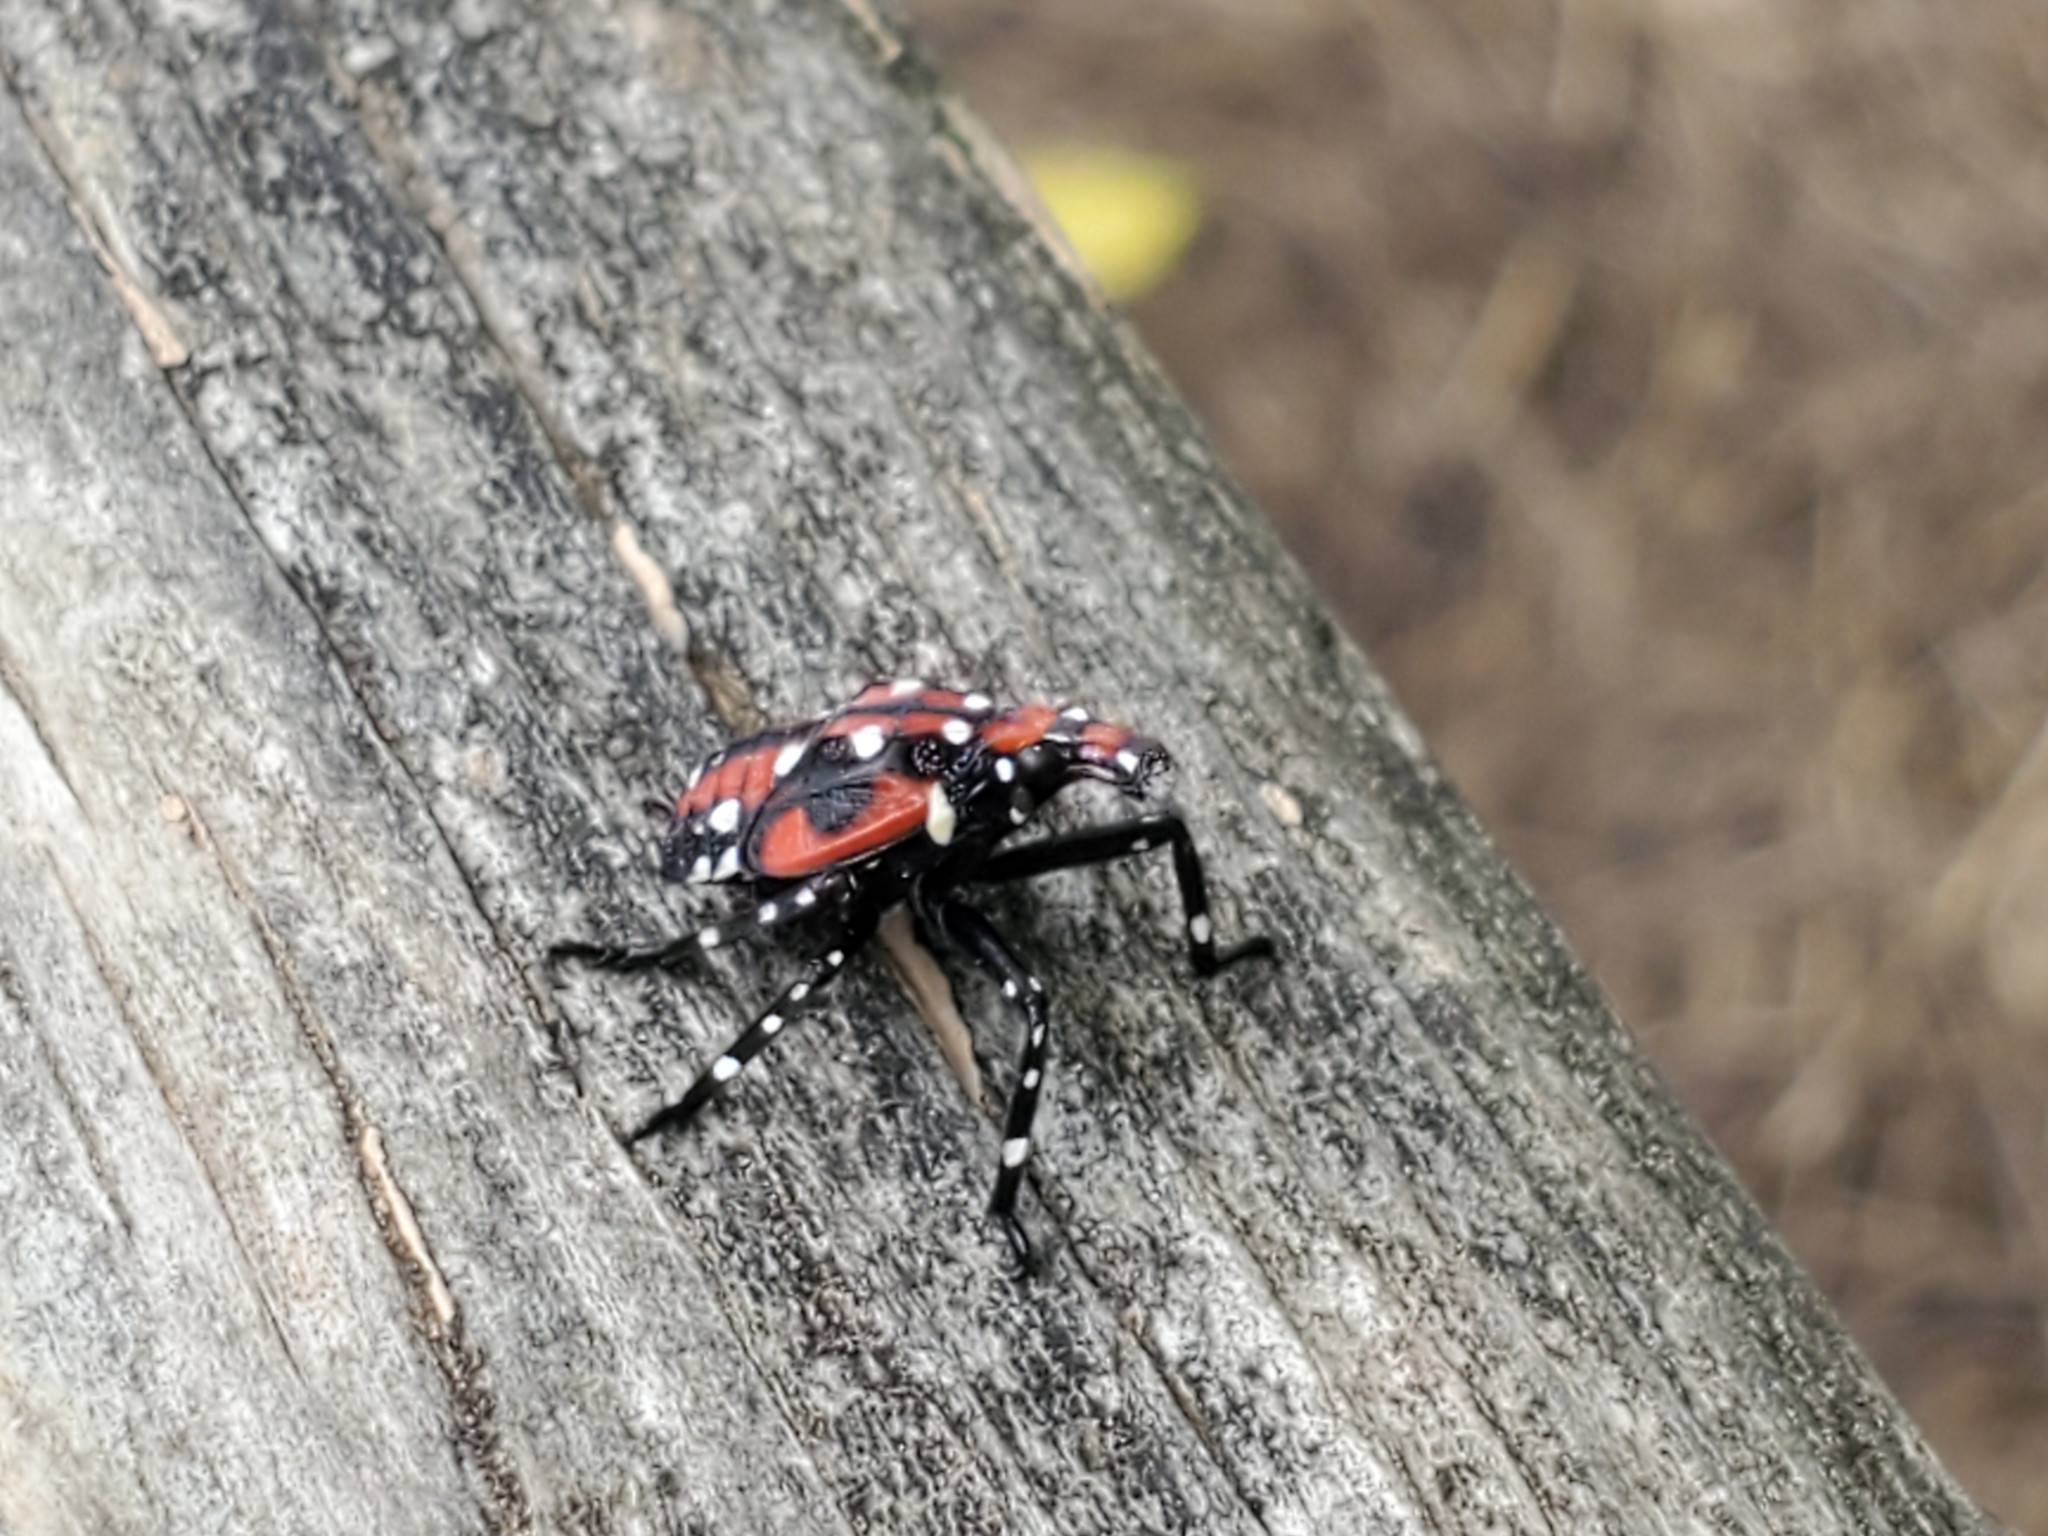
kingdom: Animalia
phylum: Arthropoda
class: Insecta
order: Hemiptera
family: Fulgoridae
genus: Lycorma
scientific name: Lycorma delicatula
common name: Spotted lanternfly
